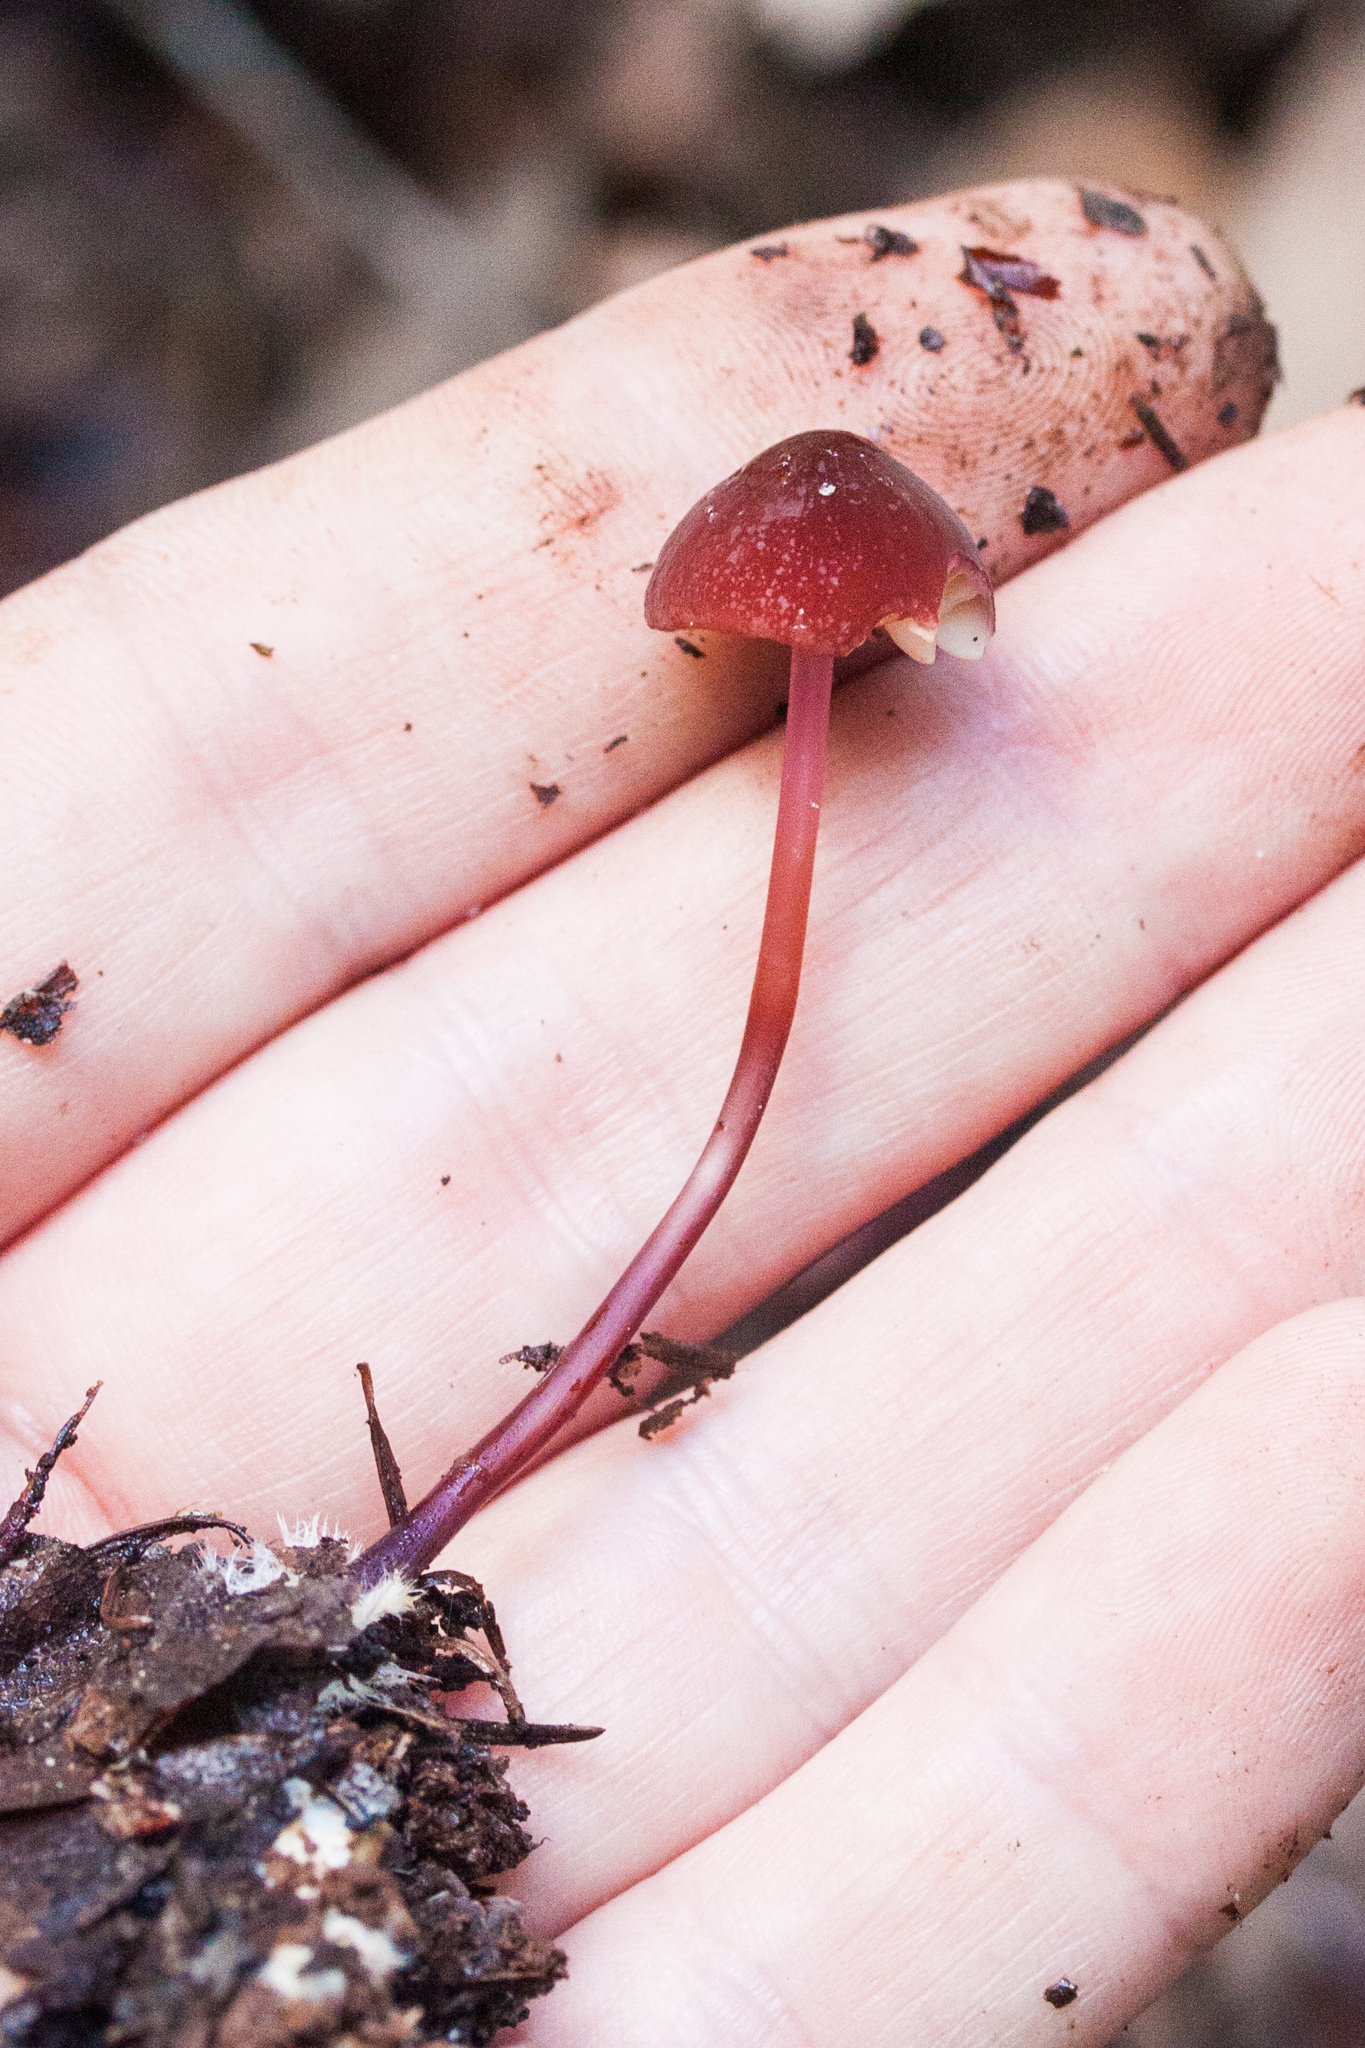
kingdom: Fungi
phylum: Basidiomycota
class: Agaricomycetes
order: Agaricales
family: Marasmiaceae
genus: Marasmius
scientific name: Marasmius plicatulus
